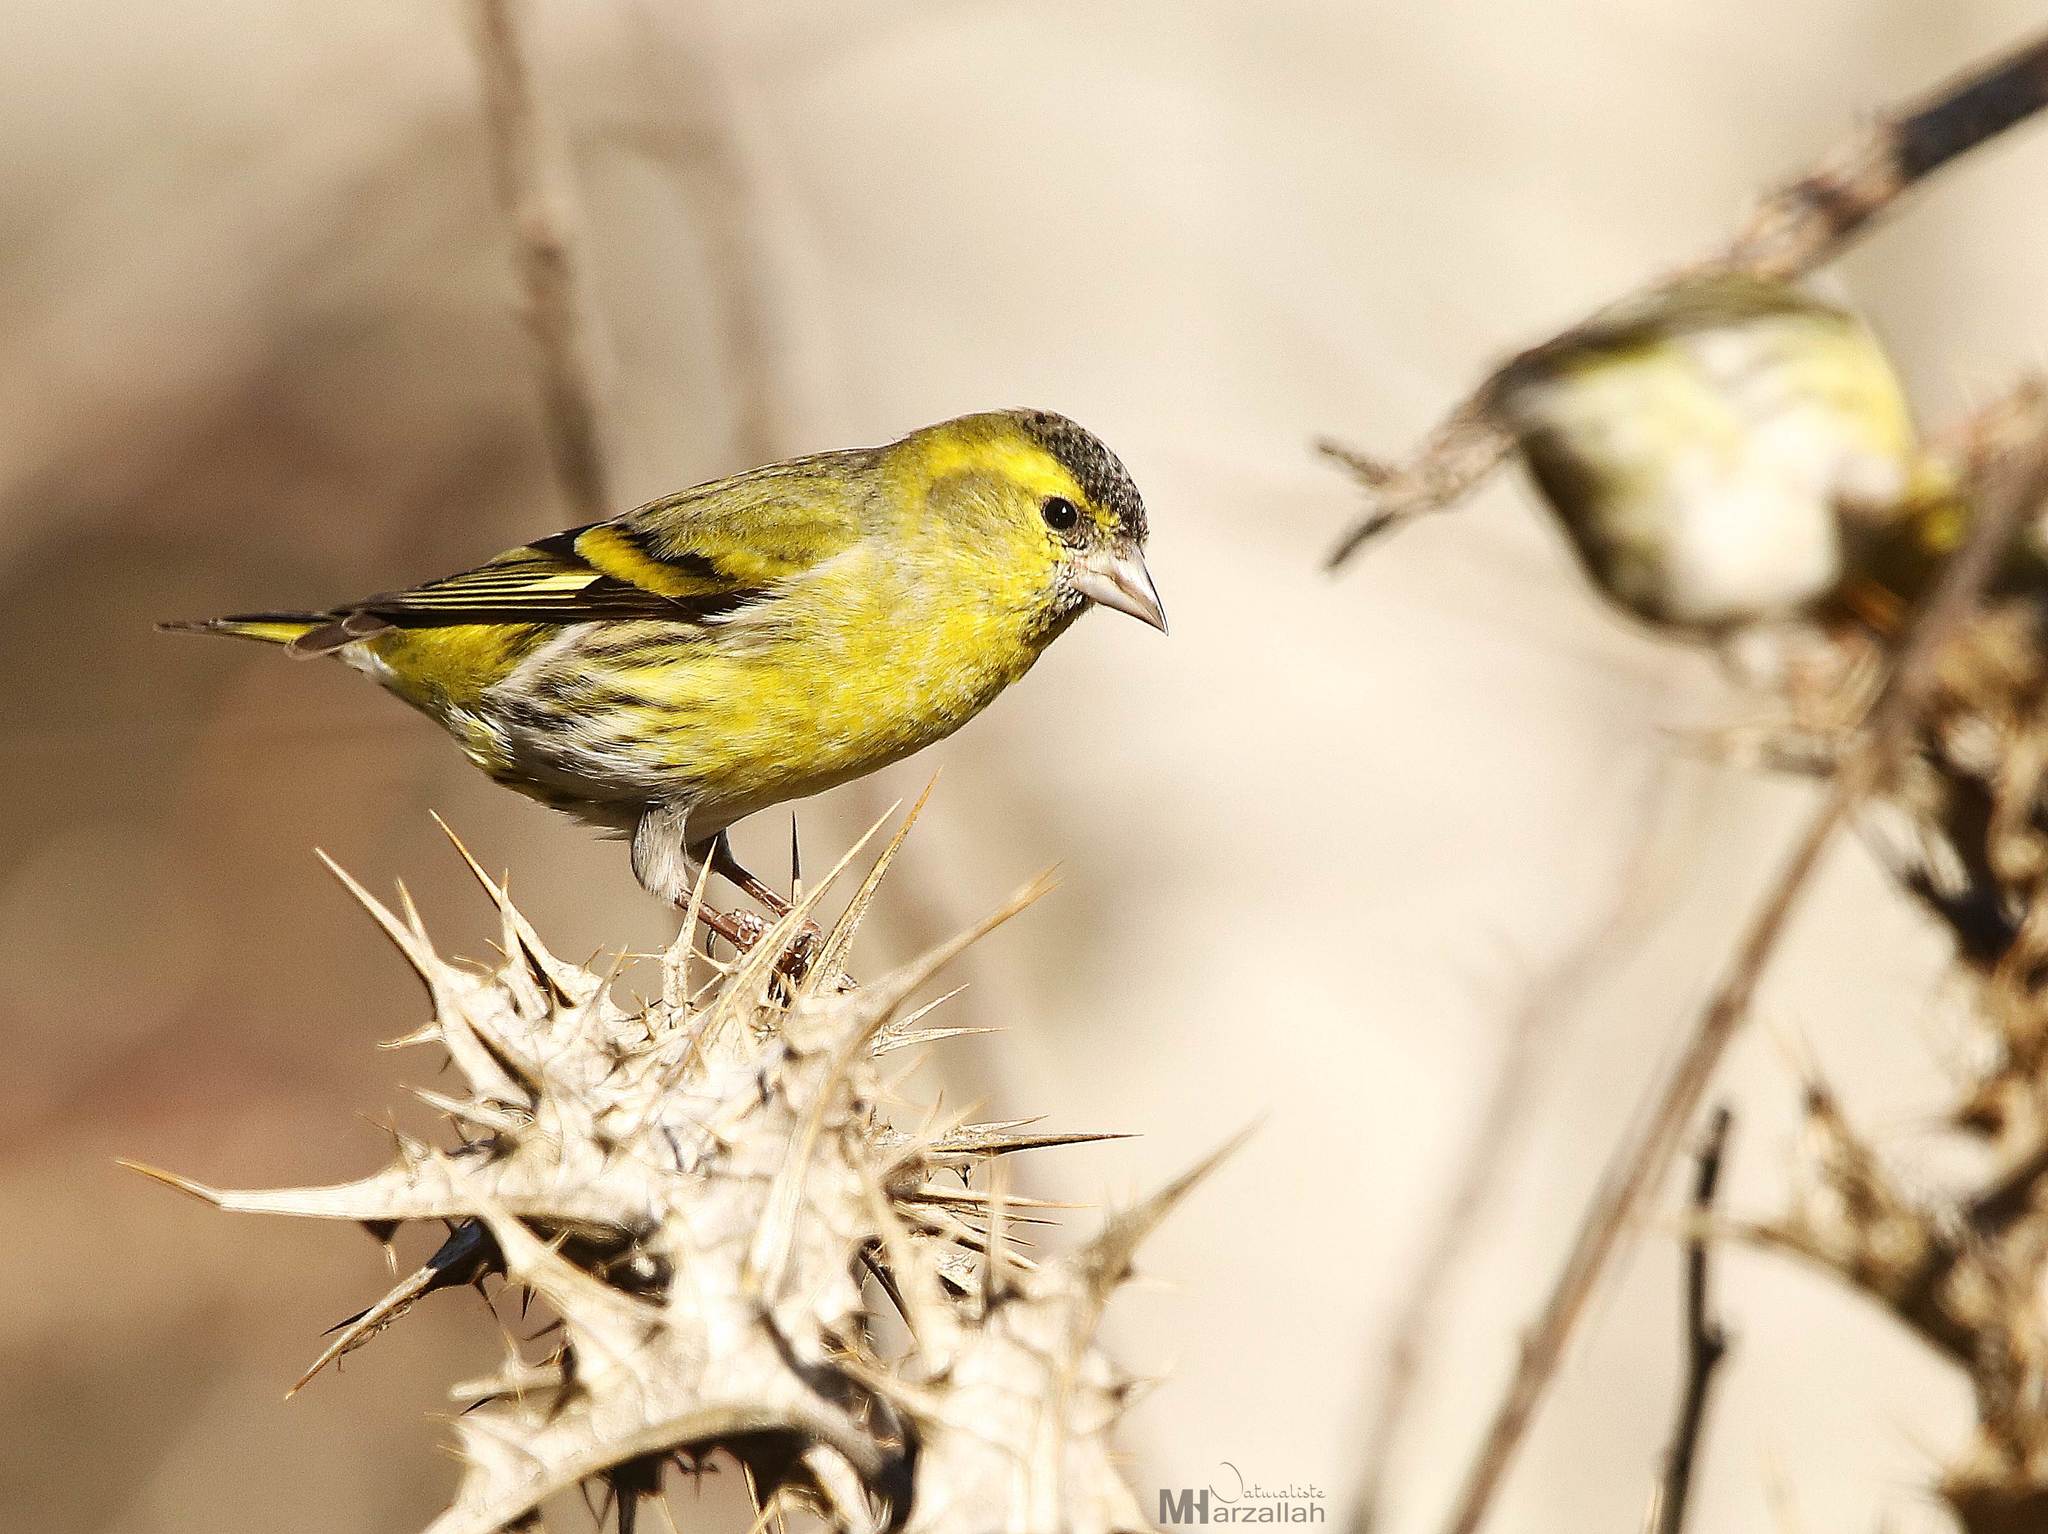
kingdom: Animalia
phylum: Chordata
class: Aves
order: Passeriformes
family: Fringillidae
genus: Spinus
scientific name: Spinus spinus
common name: Eurasian siskin
